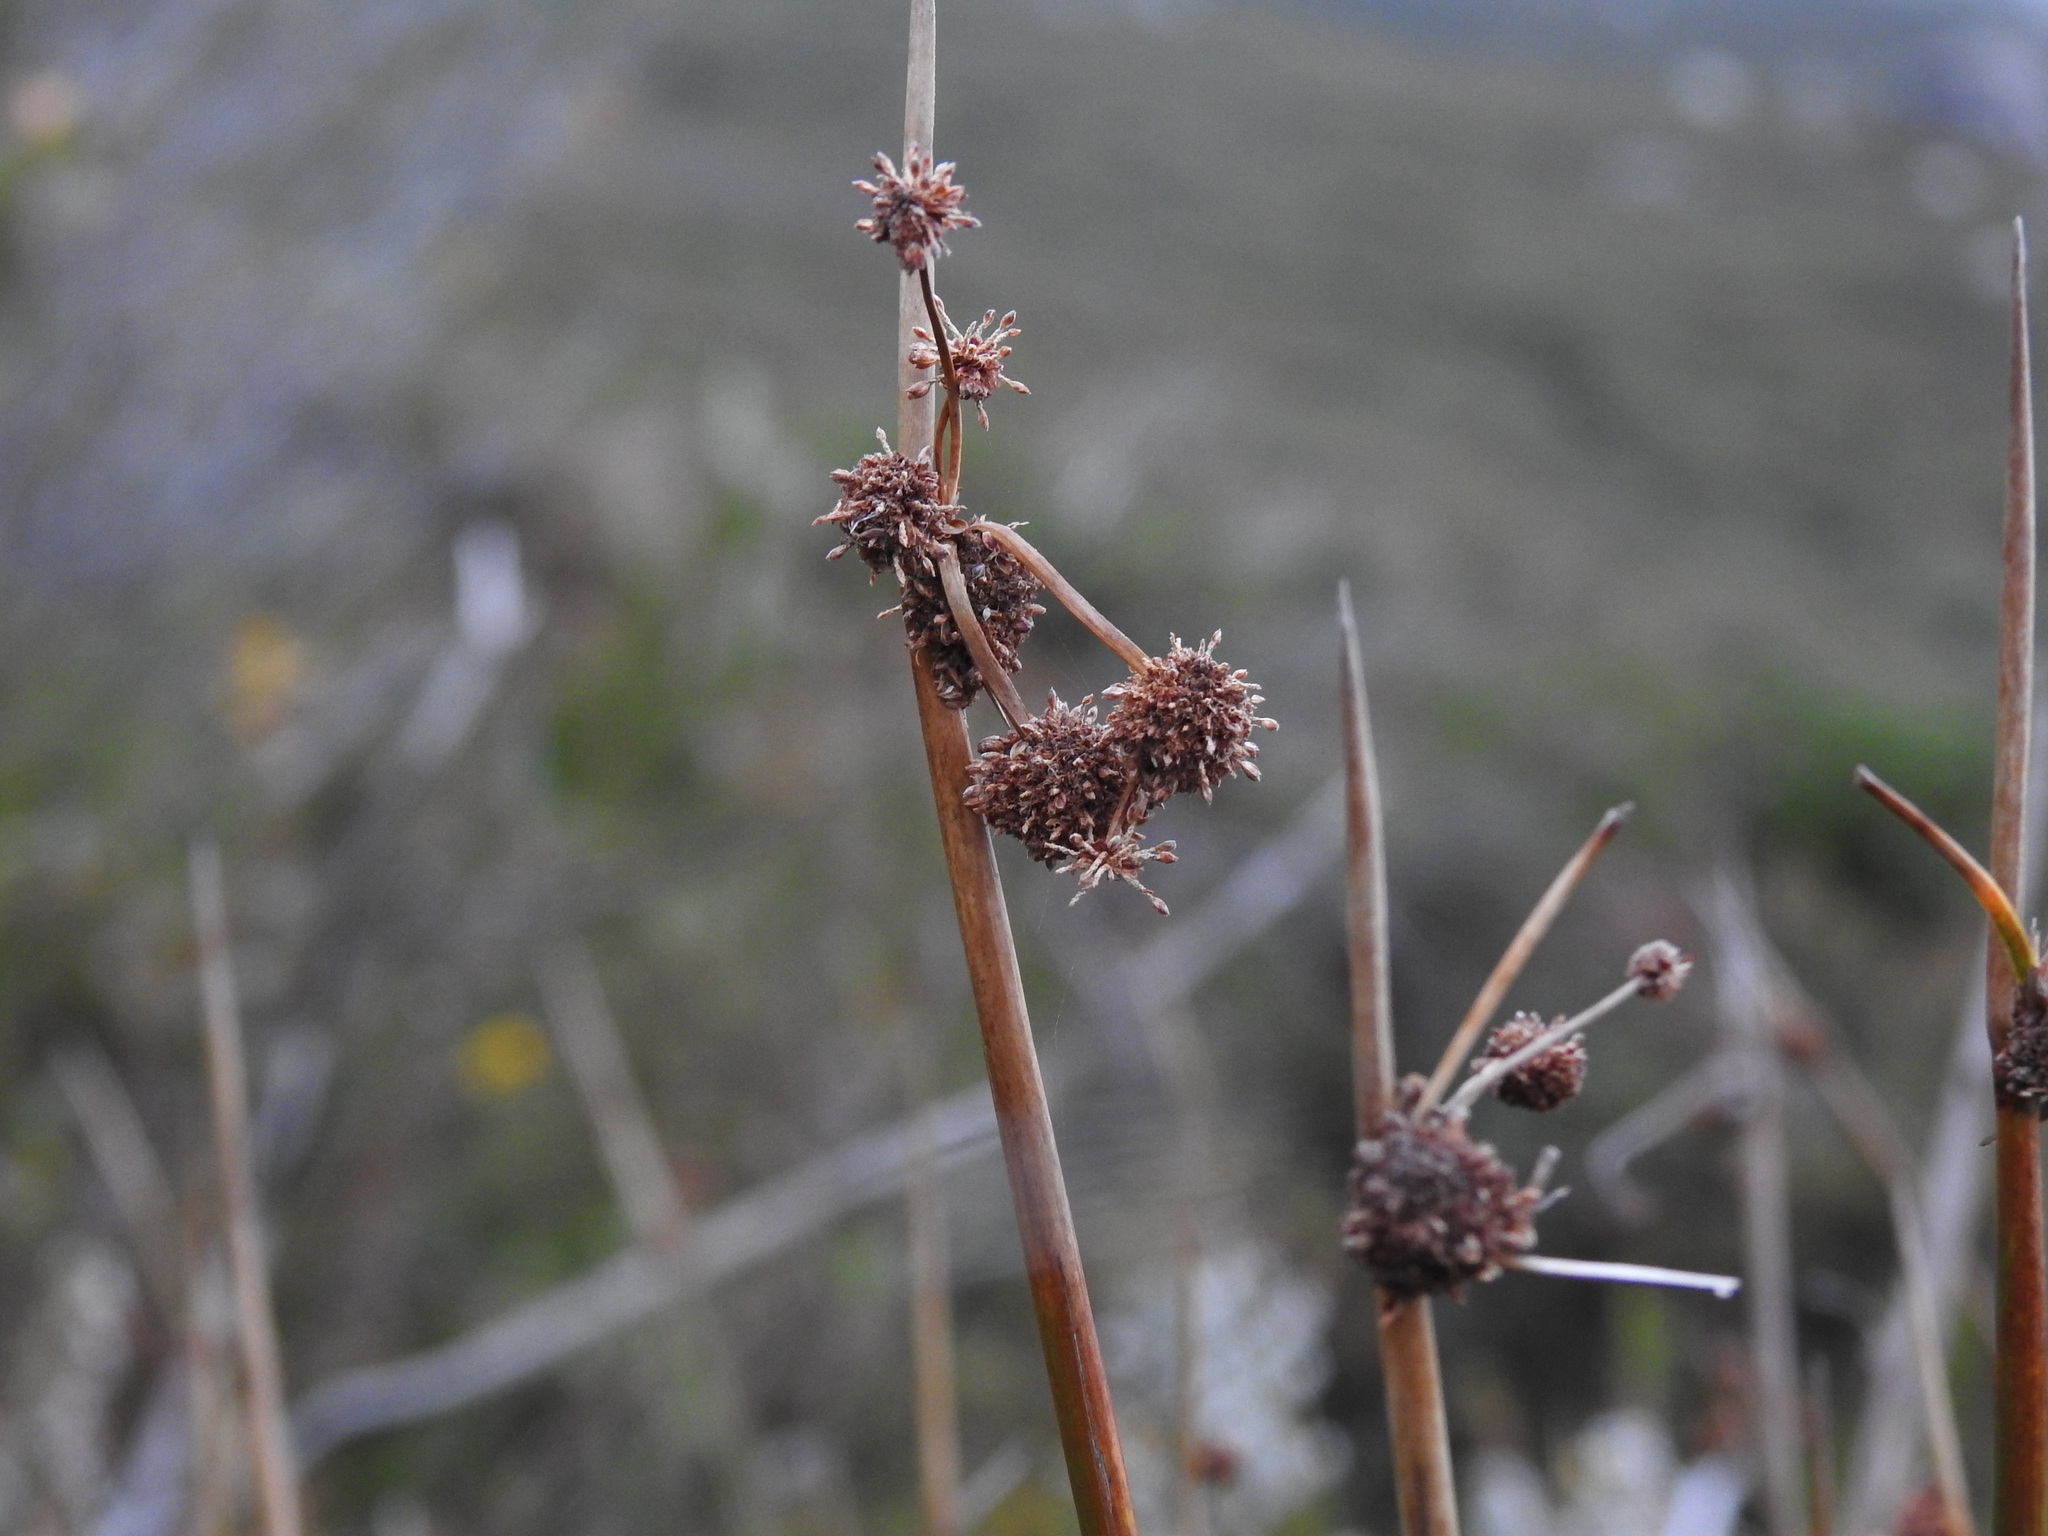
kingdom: Plantae
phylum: Tracheophyta
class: Liliopsida
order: Poales
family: Cyperaceae
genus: Scirpoides
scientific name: Scirpoides holoschoenus
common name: Round-headed club-rush
